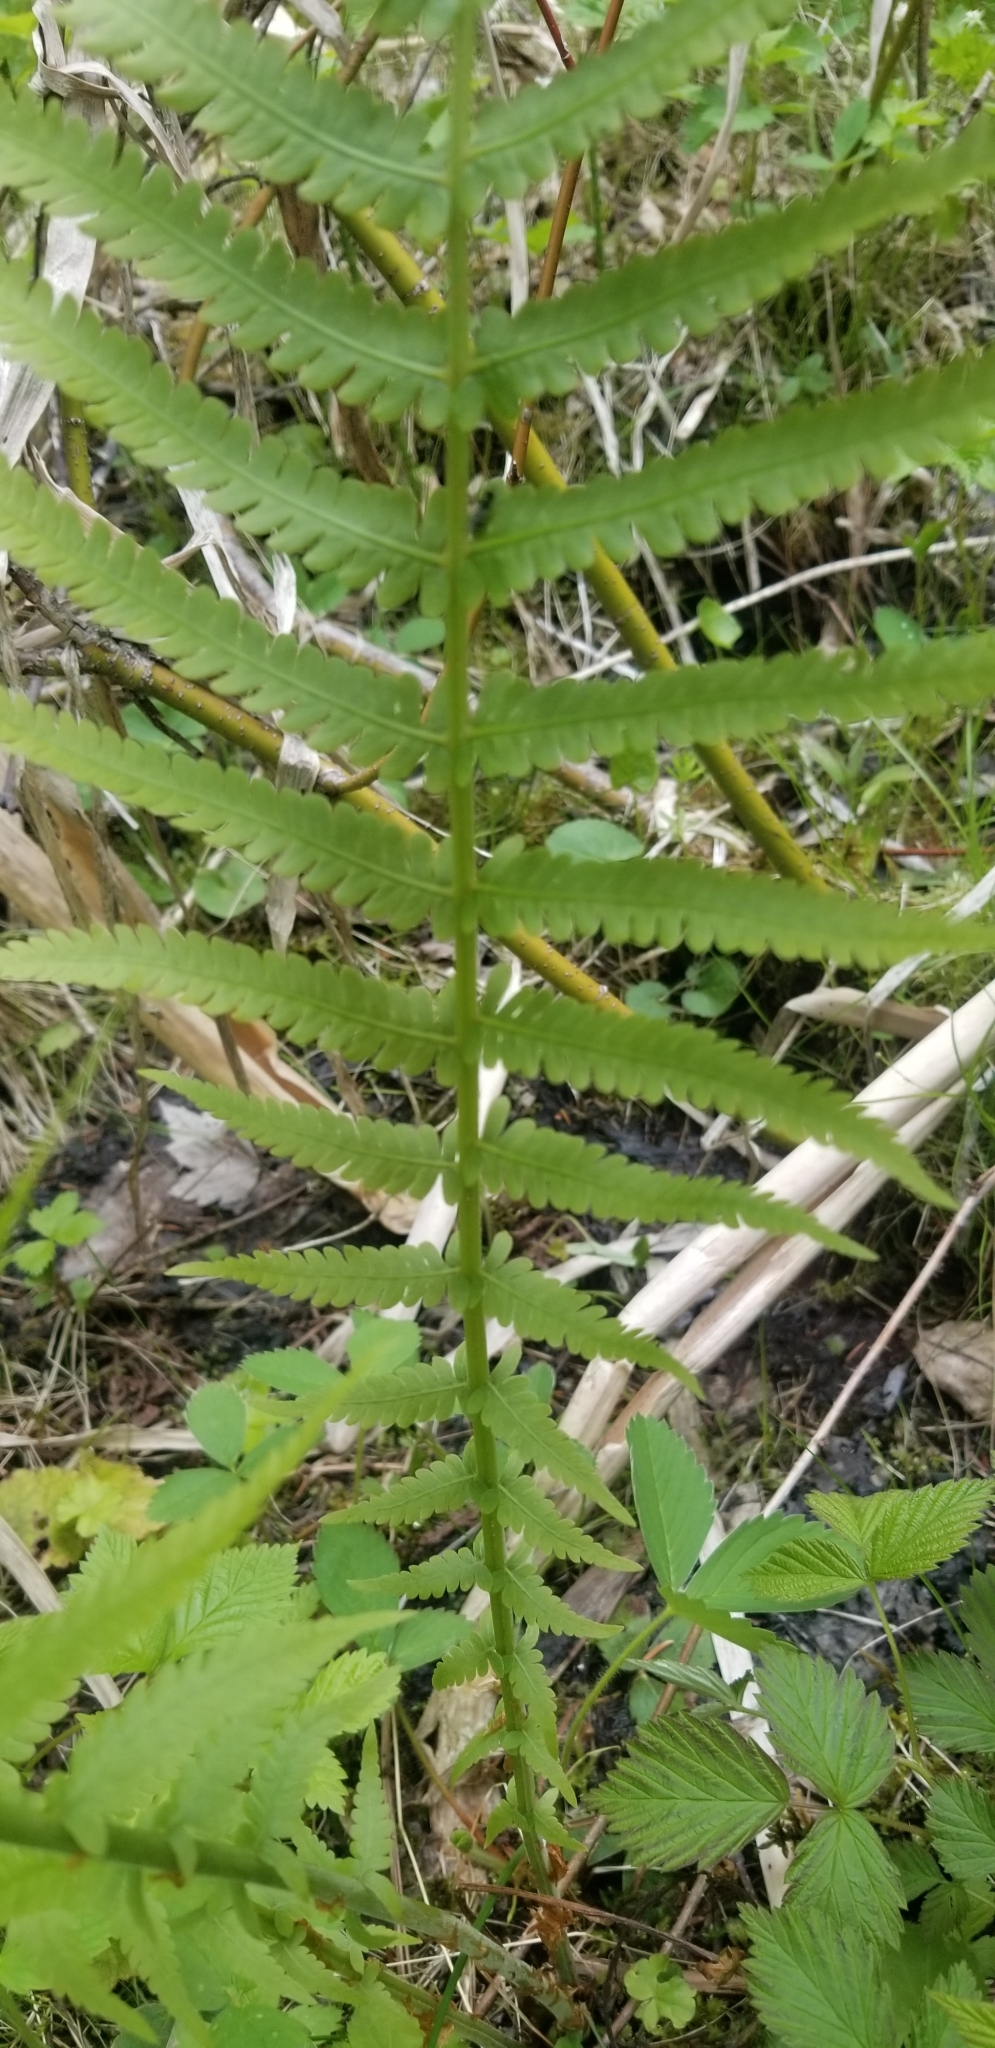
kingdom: Plantae
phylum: Tracheophyta
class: Polypodiopsida
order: Polypodiales
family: Onocleaceae
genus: Matteuccia
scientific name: Matteuccia struthiopteris
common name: Ostrich fern
